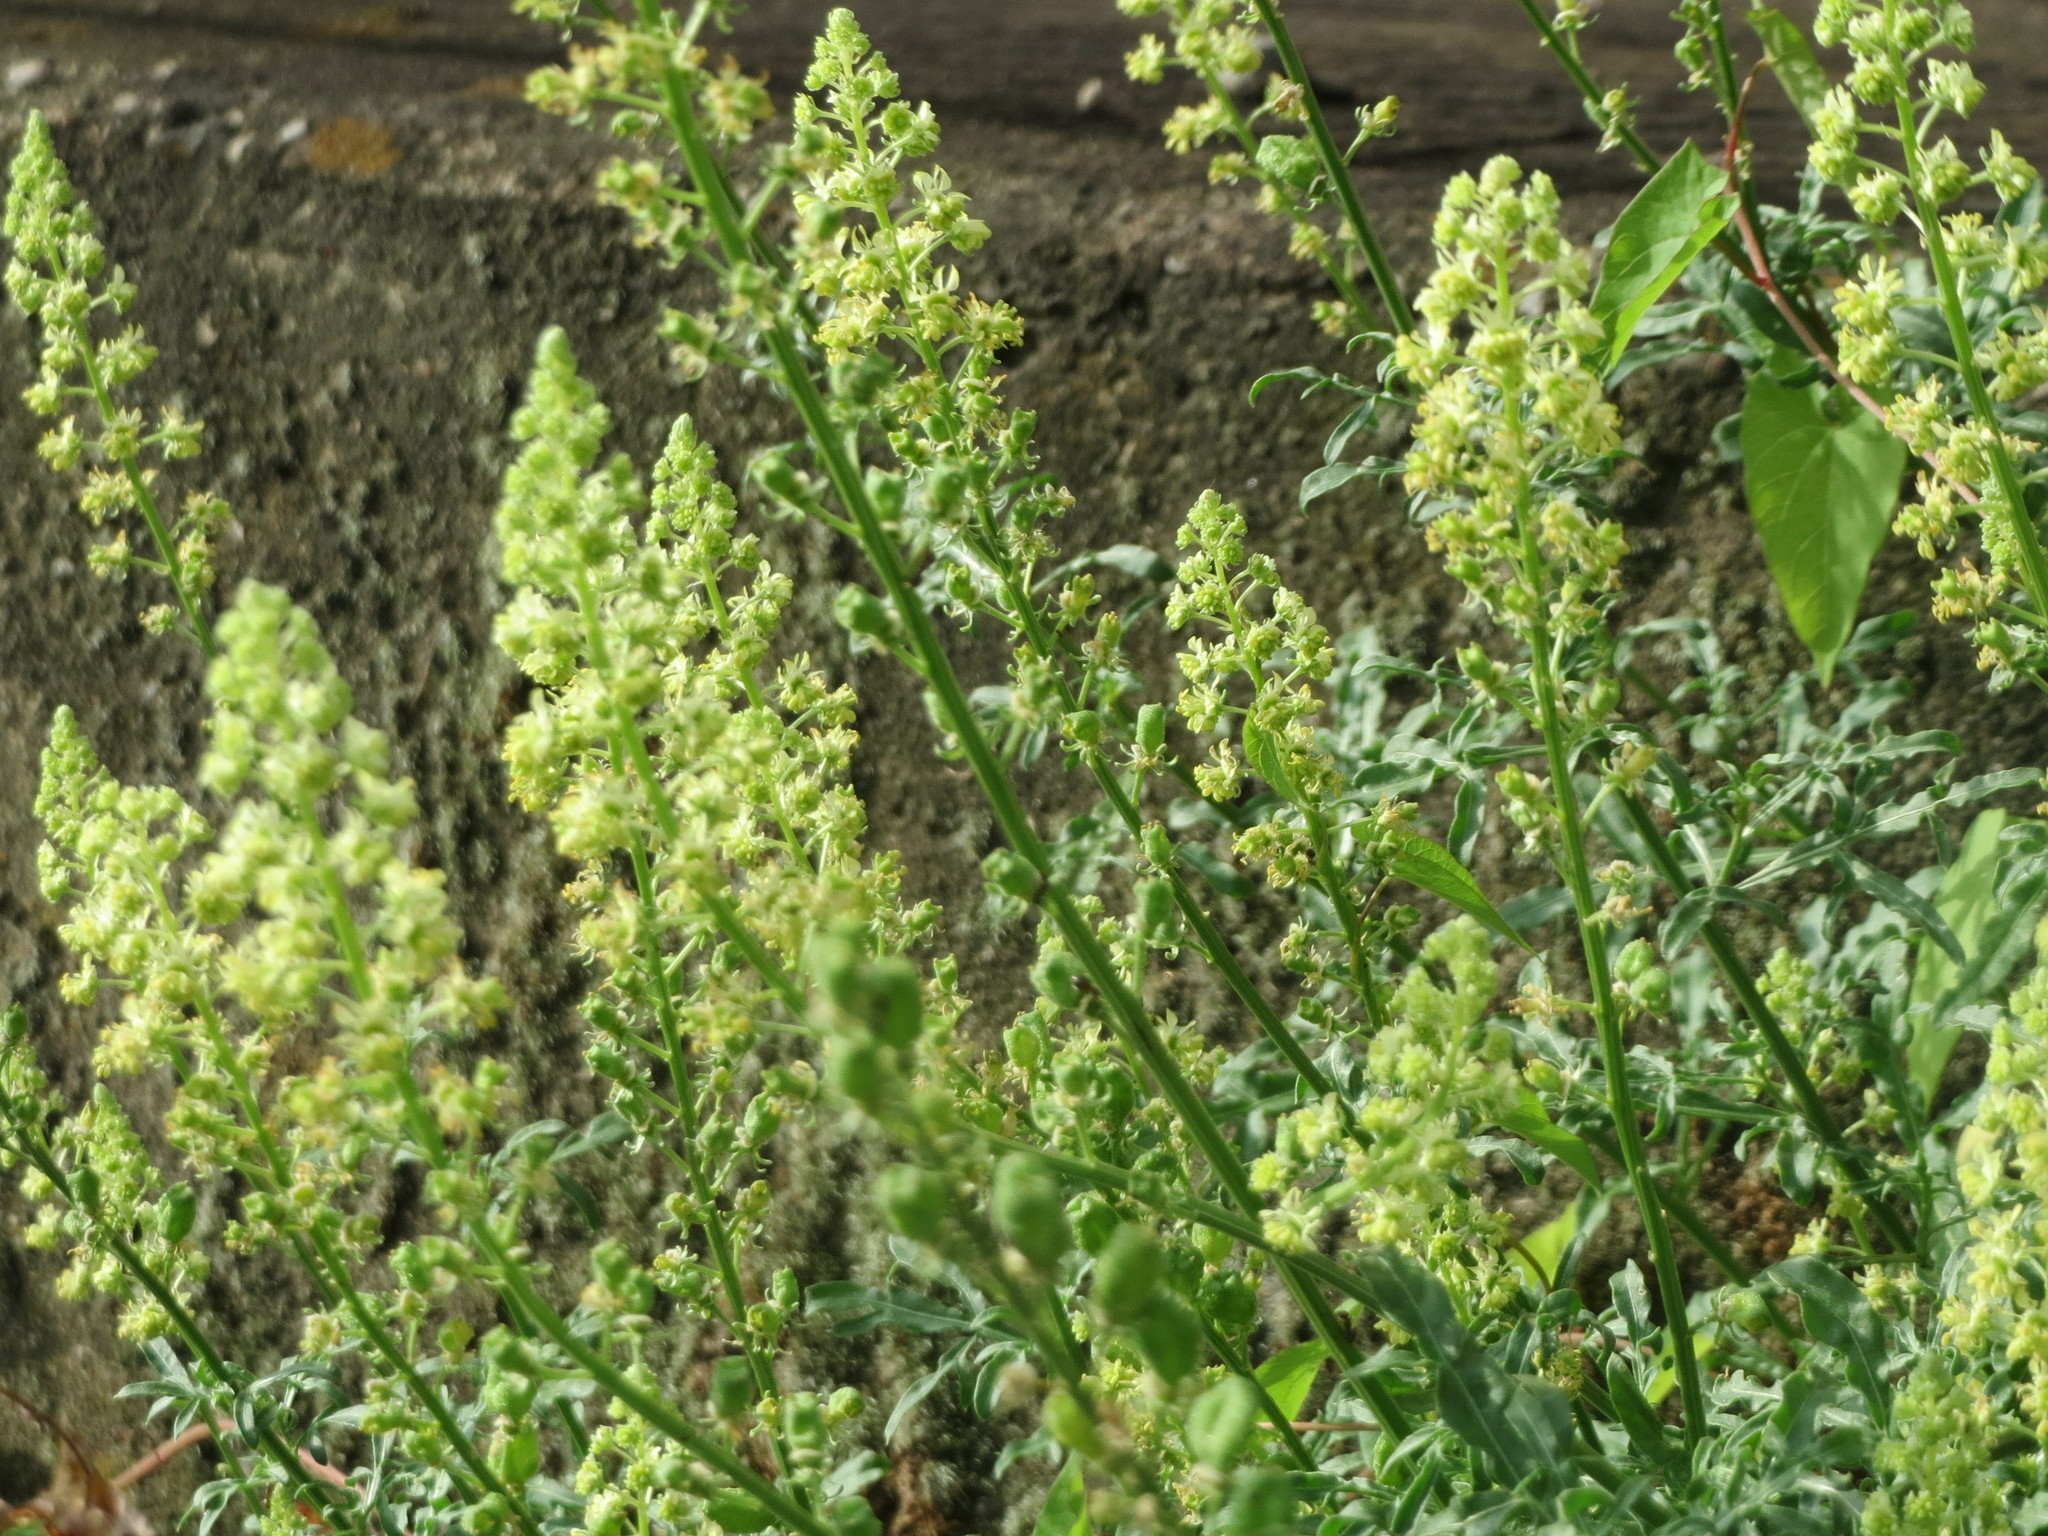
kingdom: Plantae
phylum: Tracheophyta
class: Magnoliopsida
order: Brassicales
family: Resedaceae
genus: Reseda
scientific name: Reseda lutea
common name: Wild mignonette
